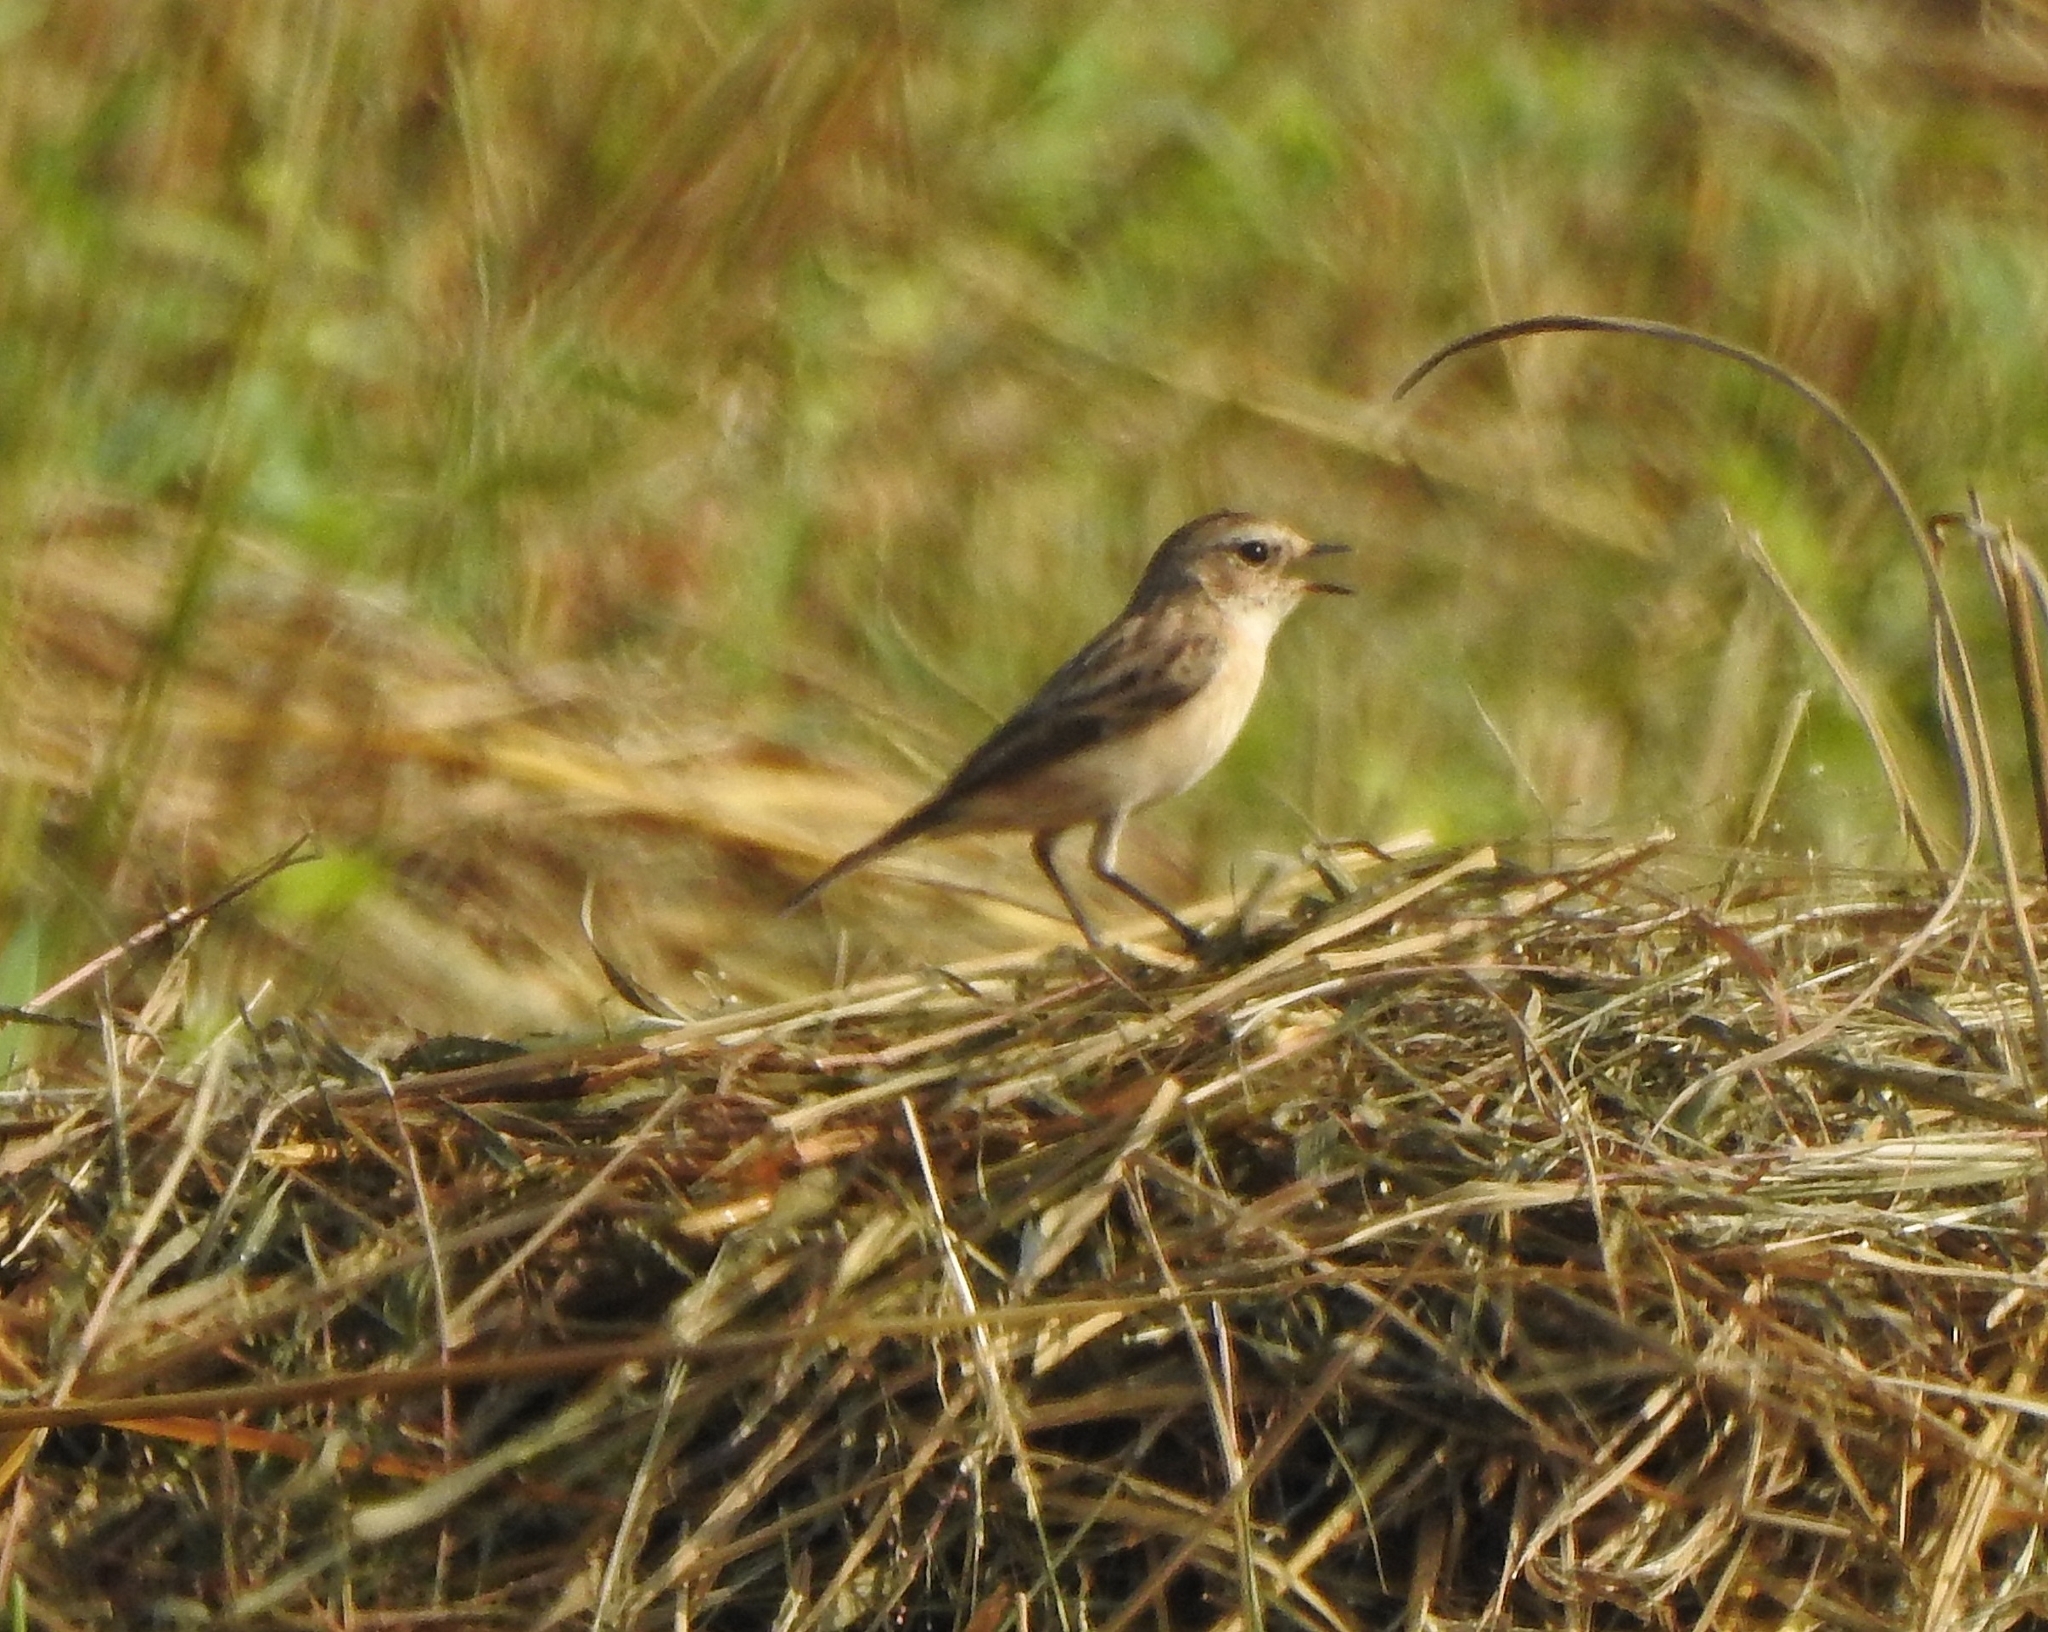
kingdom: Animalia
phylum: Chordata
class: Aves
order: Passeriformes
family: Muscicapidae
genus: Saxicola
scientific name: Saxicola maurus
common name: Siberian stonechat
